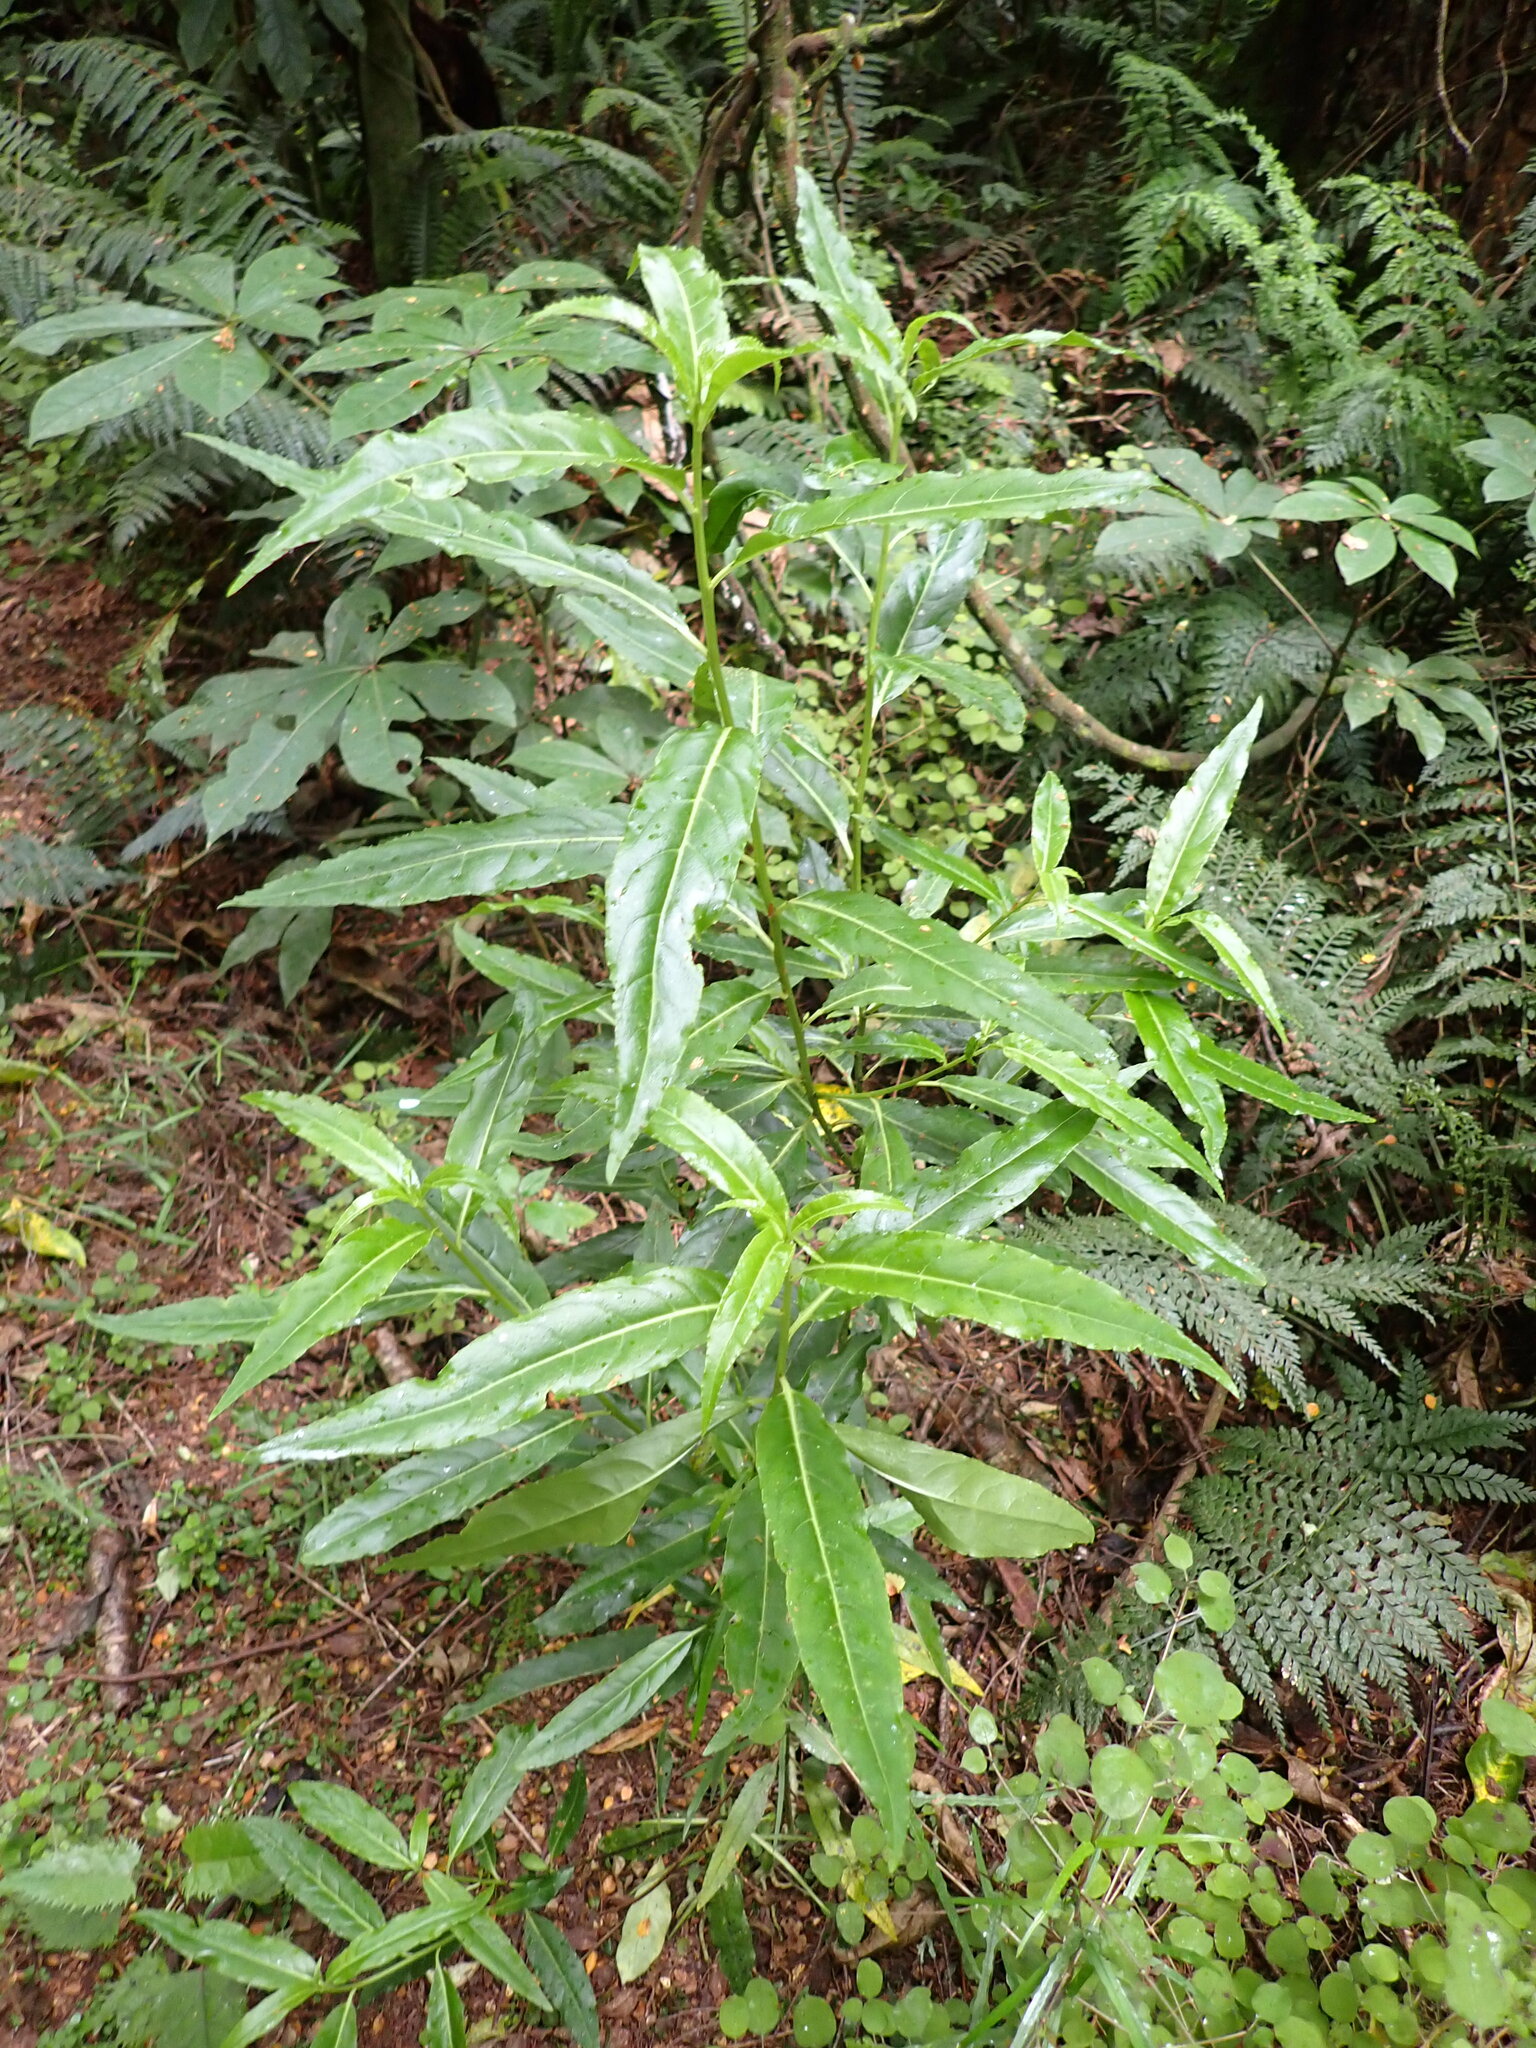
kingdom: Plantae
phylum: Tracheophyta
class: Magnoliopsida
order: Malpighiales
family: Violaceae
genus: Melicytus
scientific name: Melicytus lanceolatus
